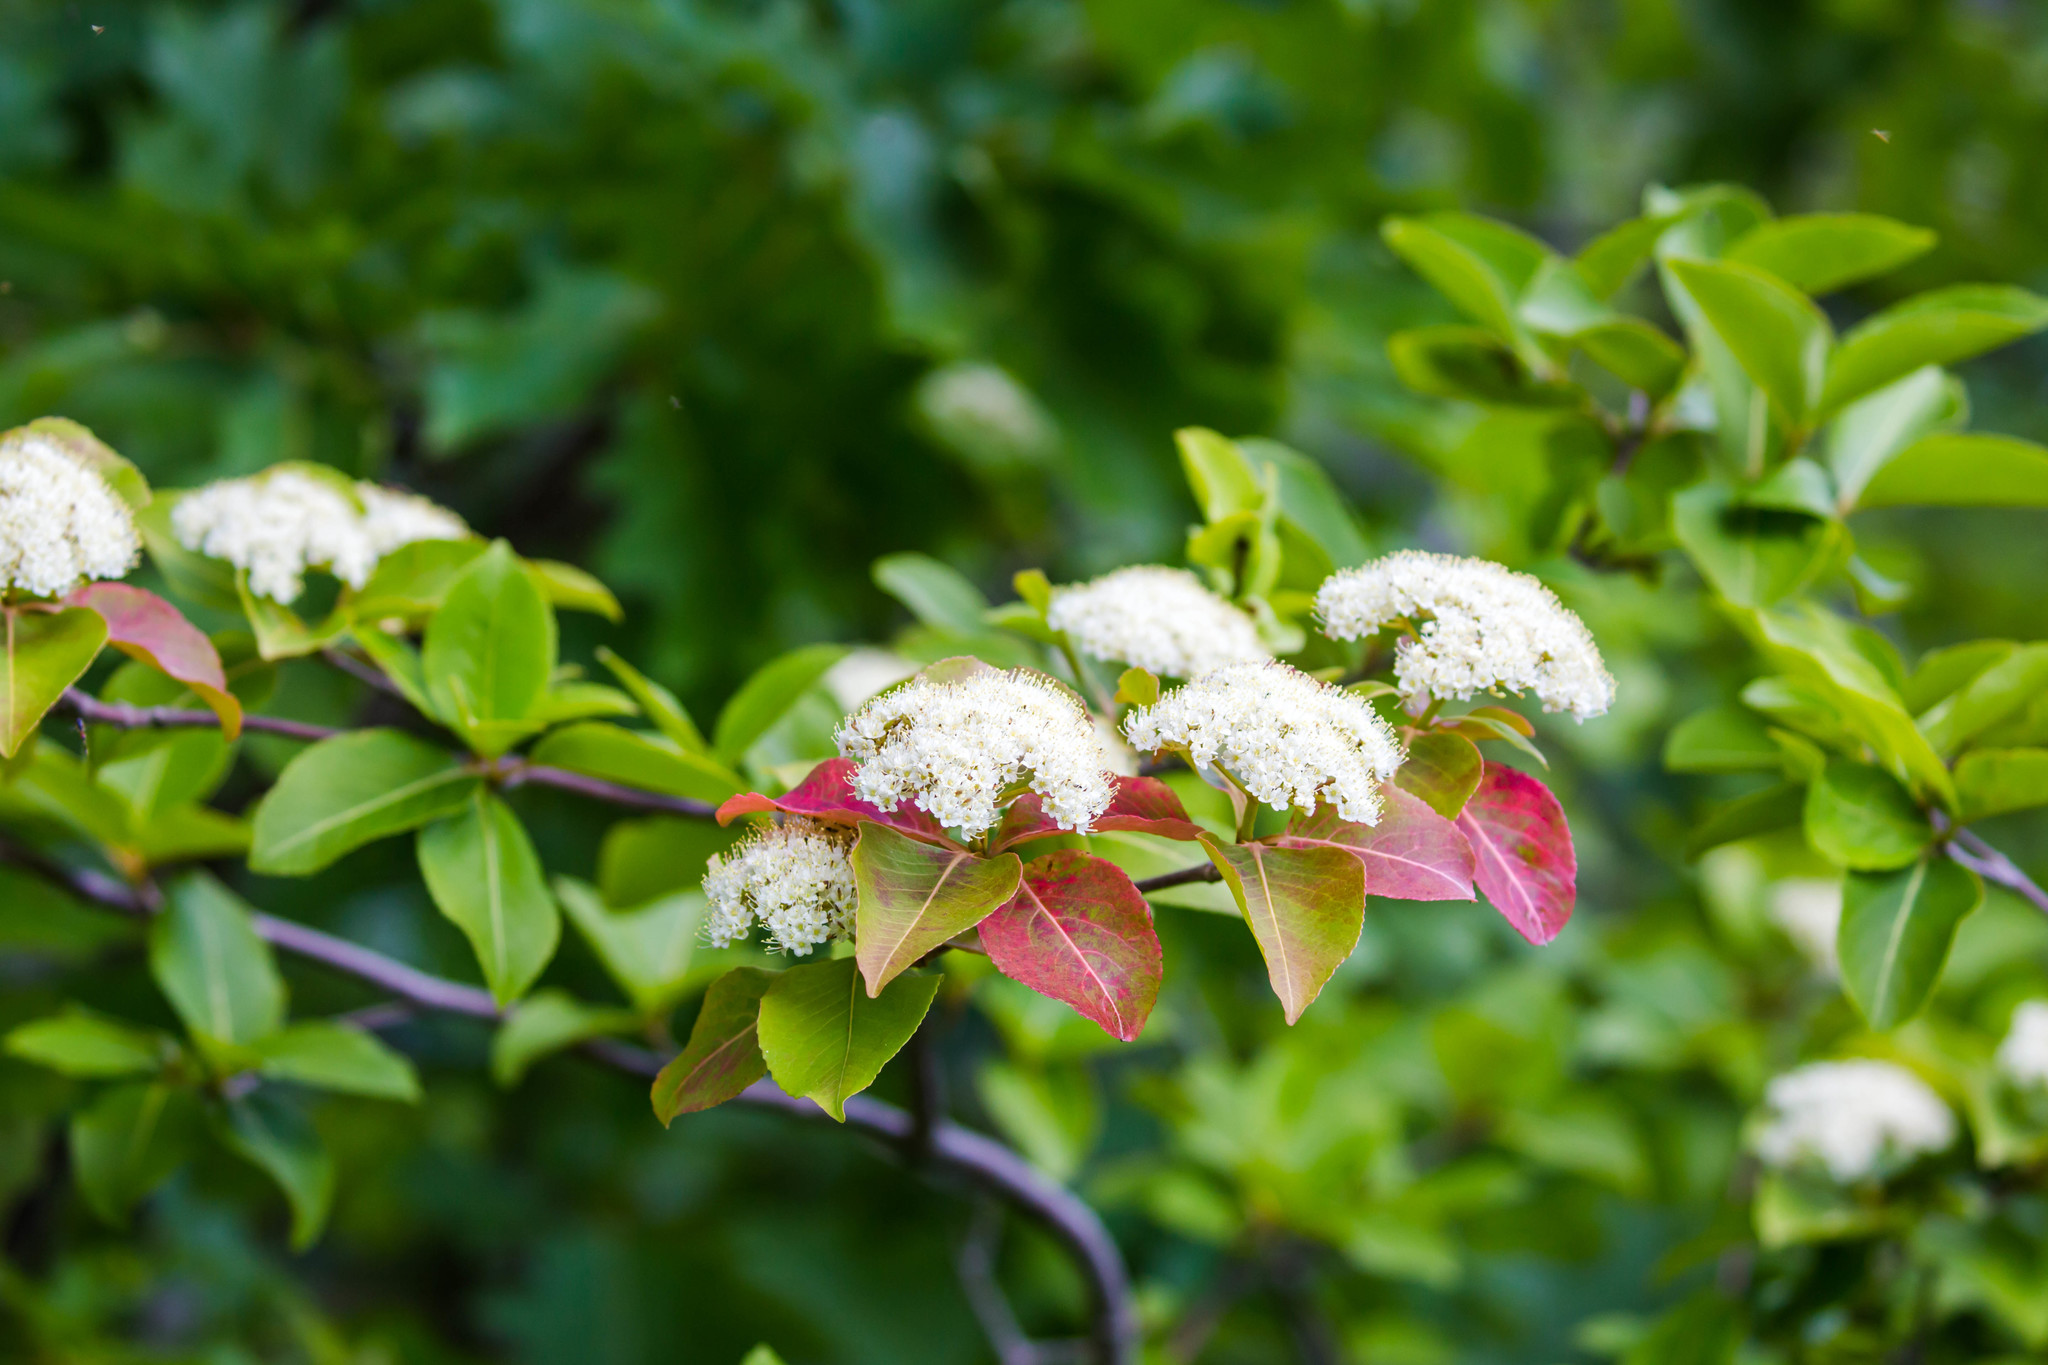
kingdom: Plantae
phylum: Tracheophyta
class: Magnoliopsida
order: Dipsacales
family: Viburnaceae
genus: Viburnum
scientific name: Viburnum cassinoides
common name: Swamp haw
